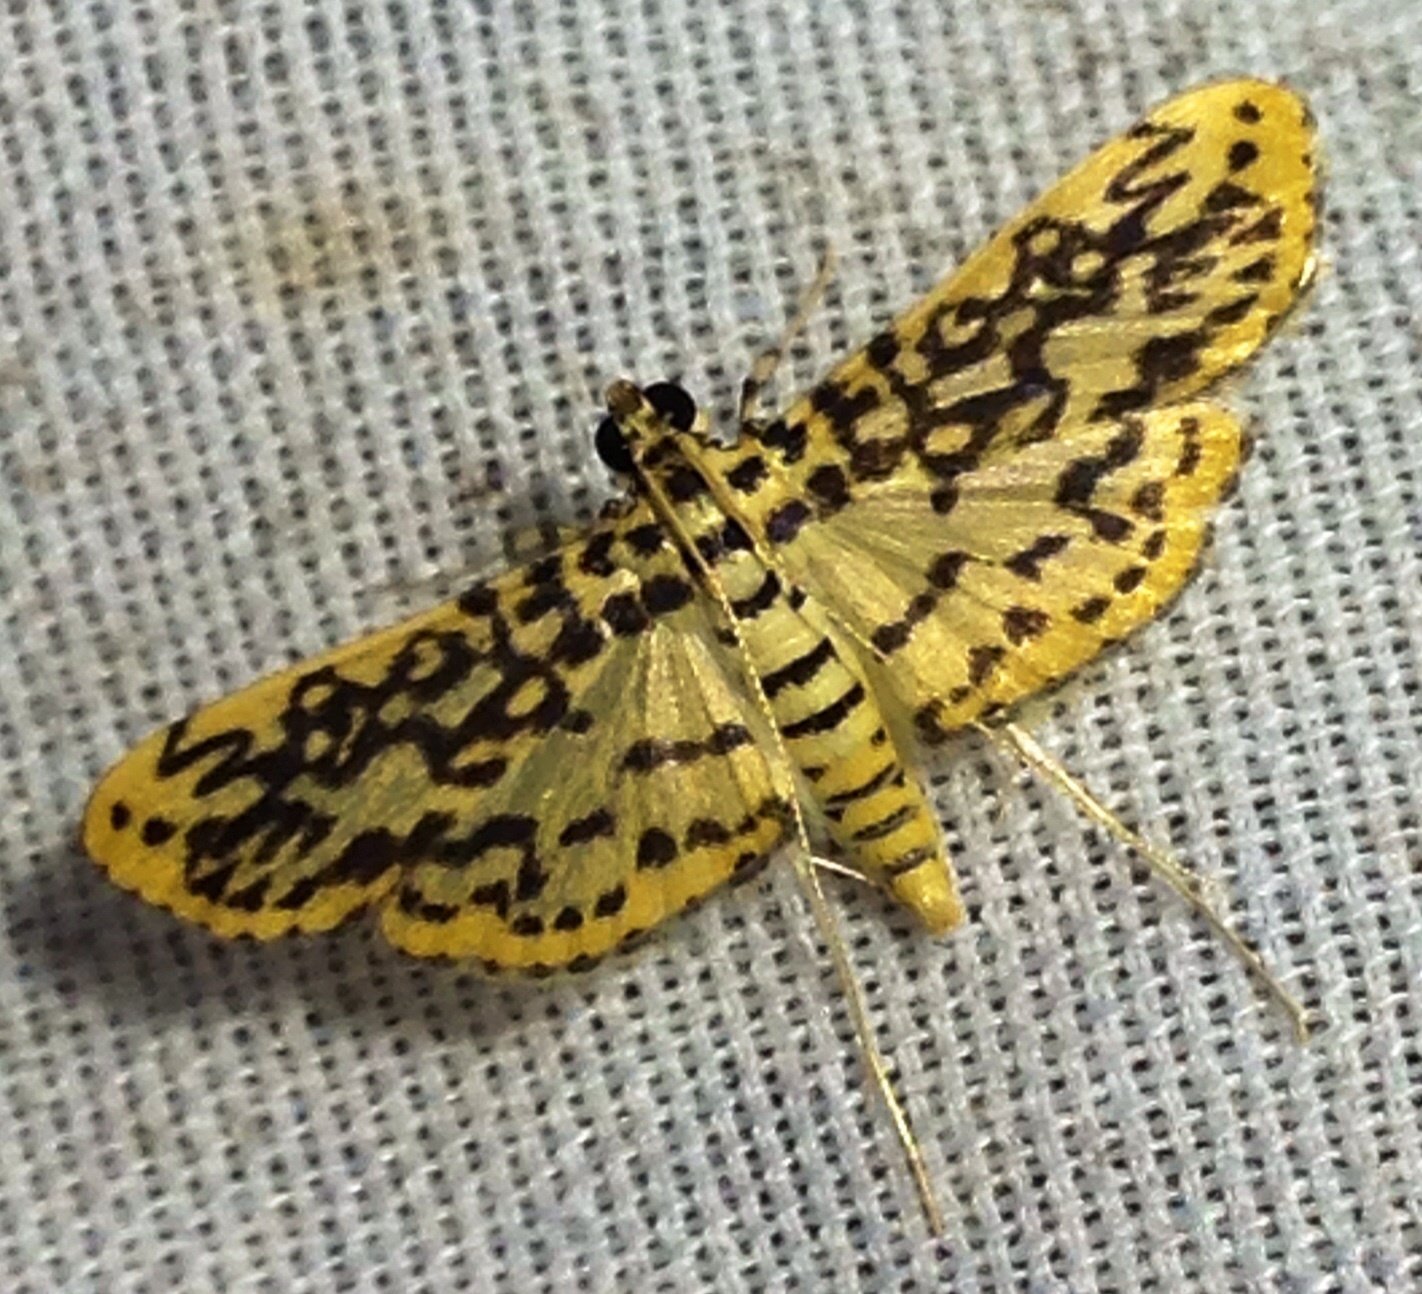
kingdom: Animalia
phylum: Arthropoda
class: Insecta
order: Lepidoptera
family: Crambidae
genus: Asturodes
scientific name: Asturodes fimbriauralis
